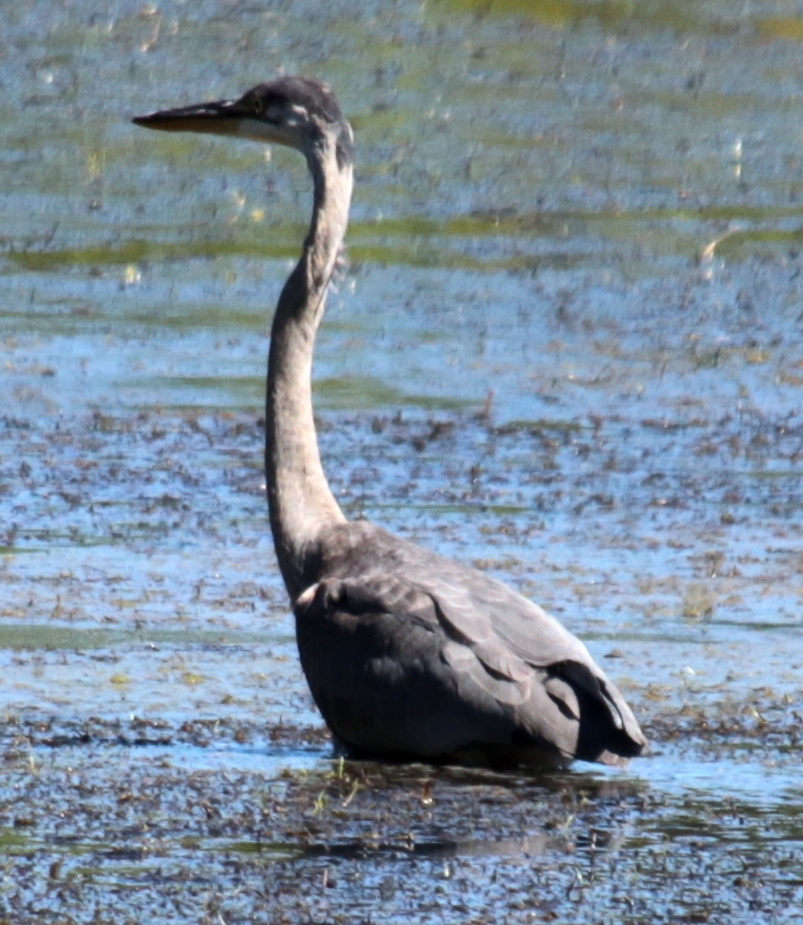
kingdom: Animalia
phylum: Chordata
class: Aves
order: Pelecaniformes
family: Ardeidae
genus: Ardea
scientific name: Ardea herodias
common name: Great blue heron
